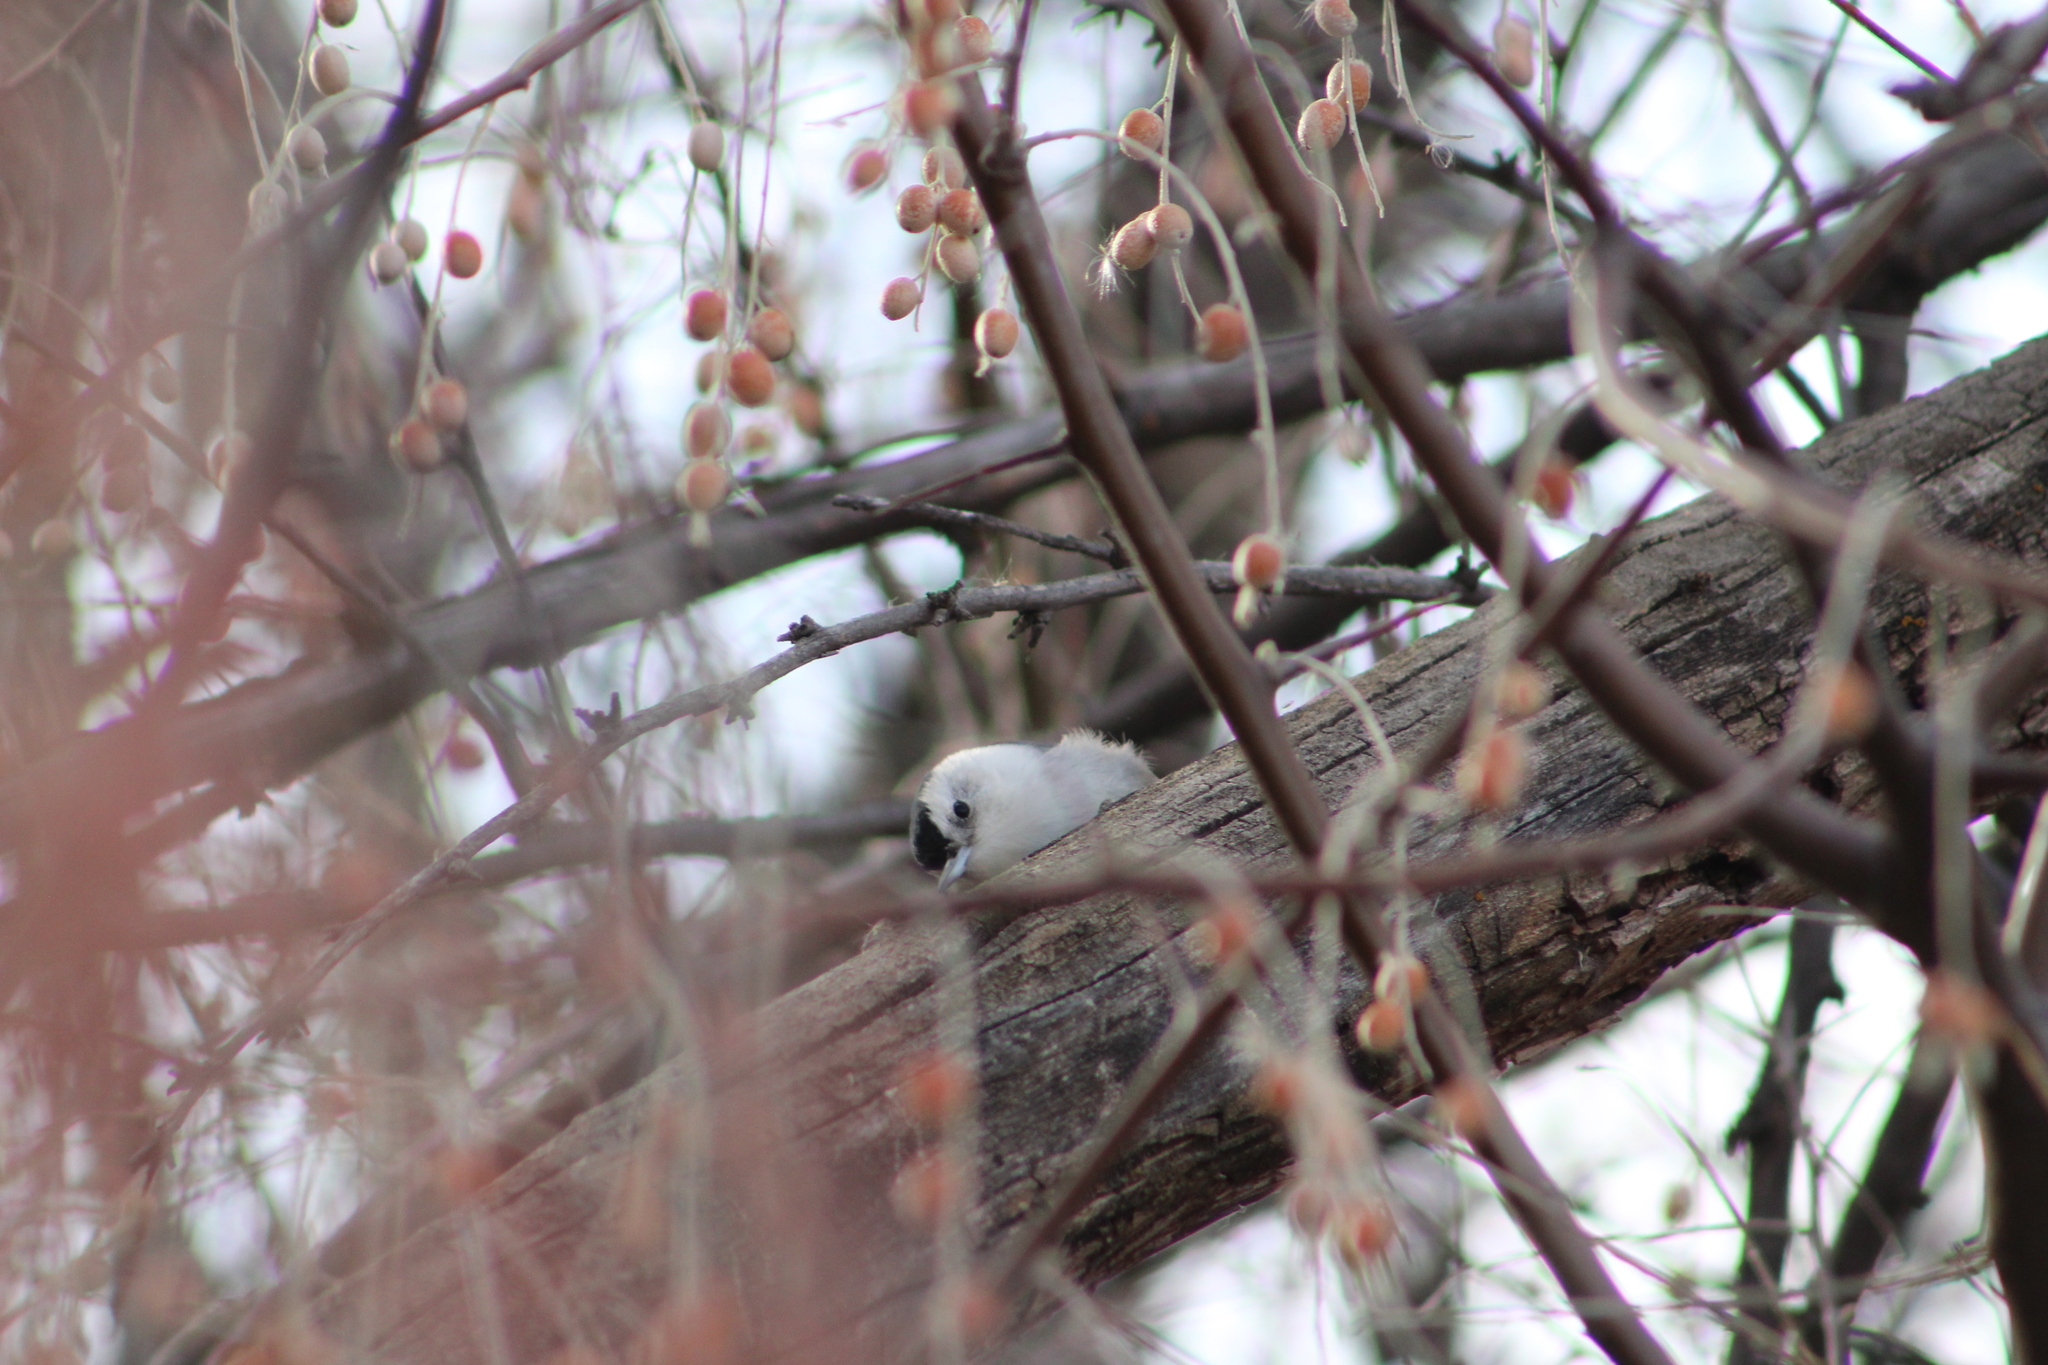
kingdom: Animalia
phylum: Chordata
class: Aves
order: Passeriformes
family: Sittidae
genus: Sitta
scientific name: Sitta carolinensis
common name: White-breasted nuthatch
